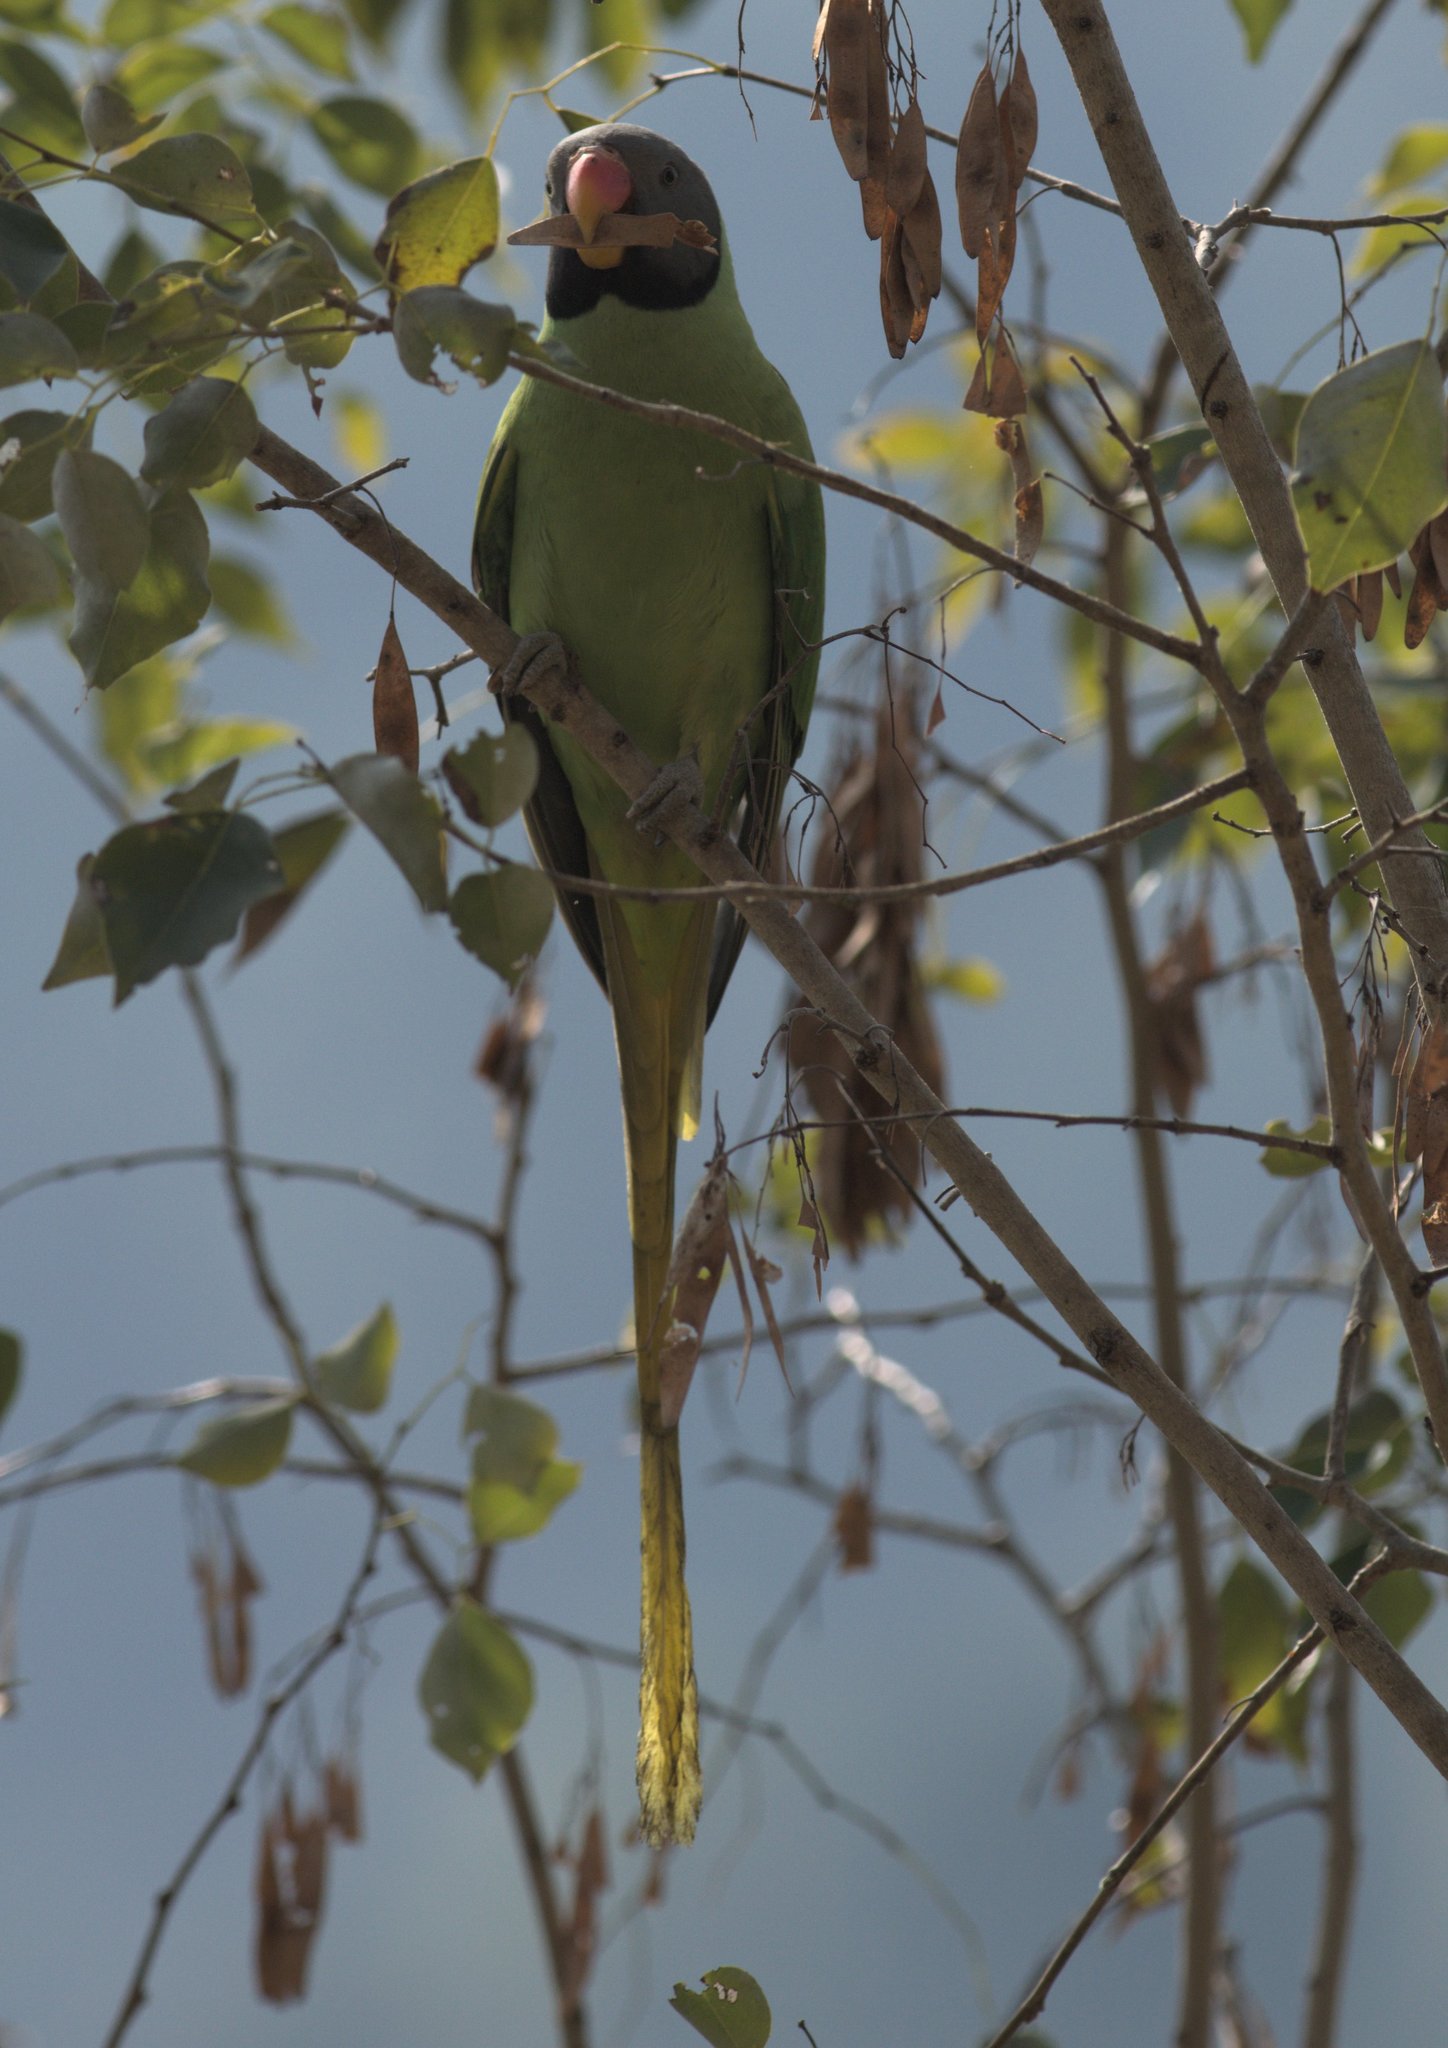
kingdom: Animalia
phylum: Chordata
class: Aves
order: Psittaciformes
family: Psittacidae
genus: Psittacula
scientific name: Psittacula himalayana
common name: Slaty-headed parakeet
